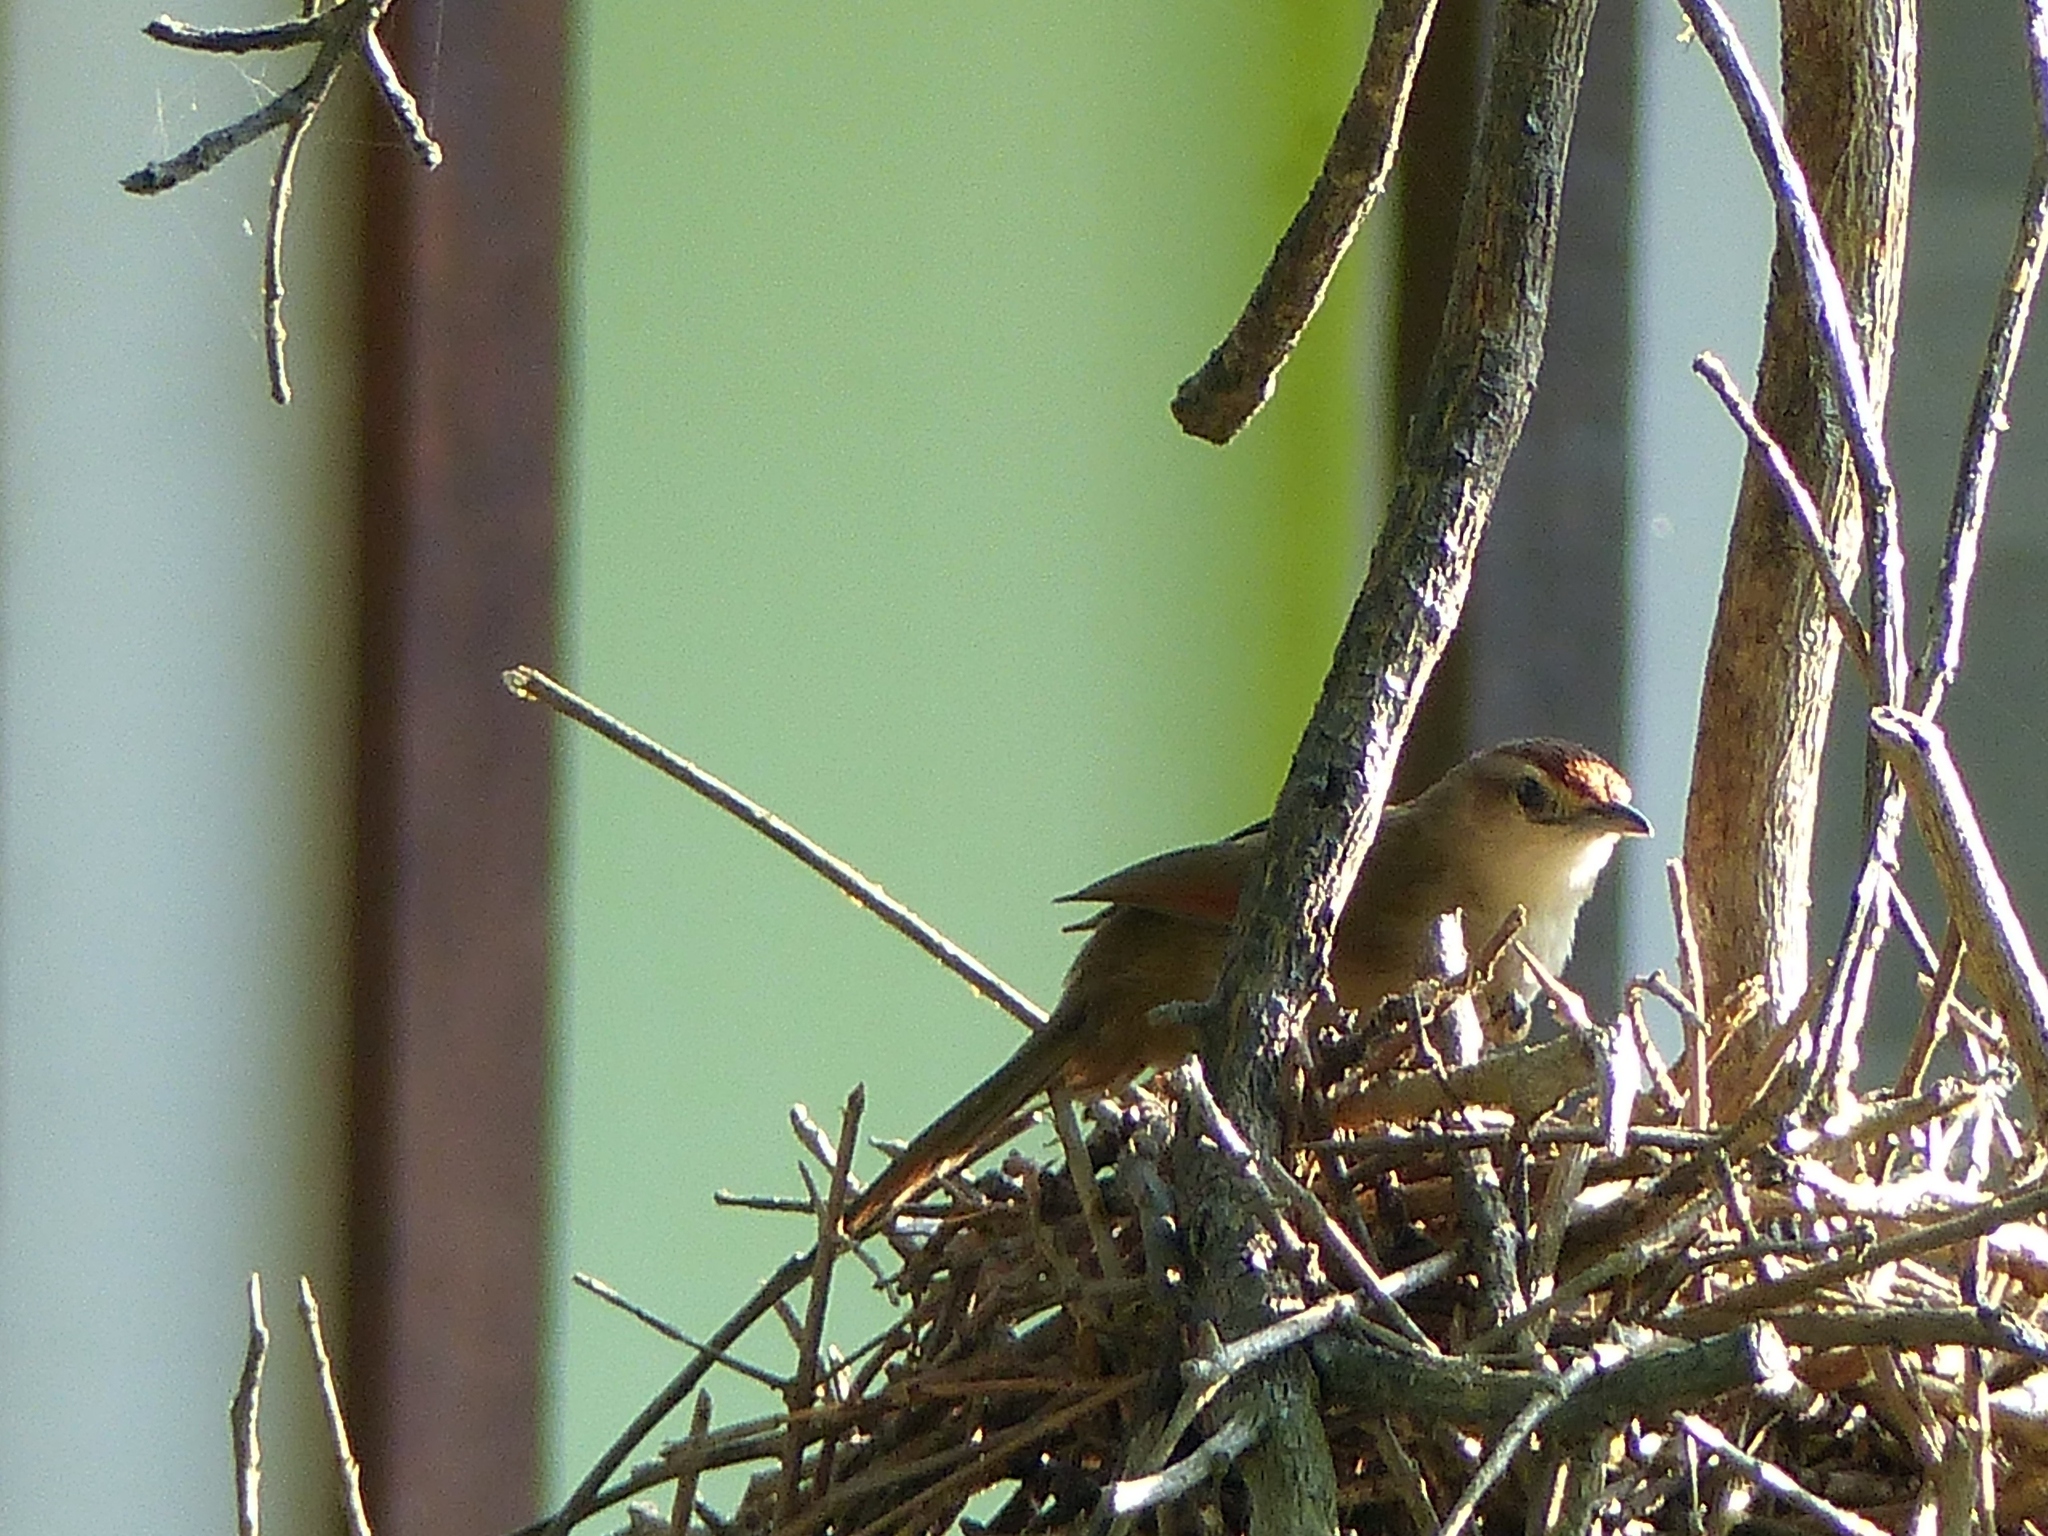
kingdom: Animalia
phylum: Chordata
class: Aves
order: Passeriformes
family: Furnariidae
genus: Phacellodomus
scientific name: Phacellodomus rufifrons
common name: Rufous-fronted thornbird
